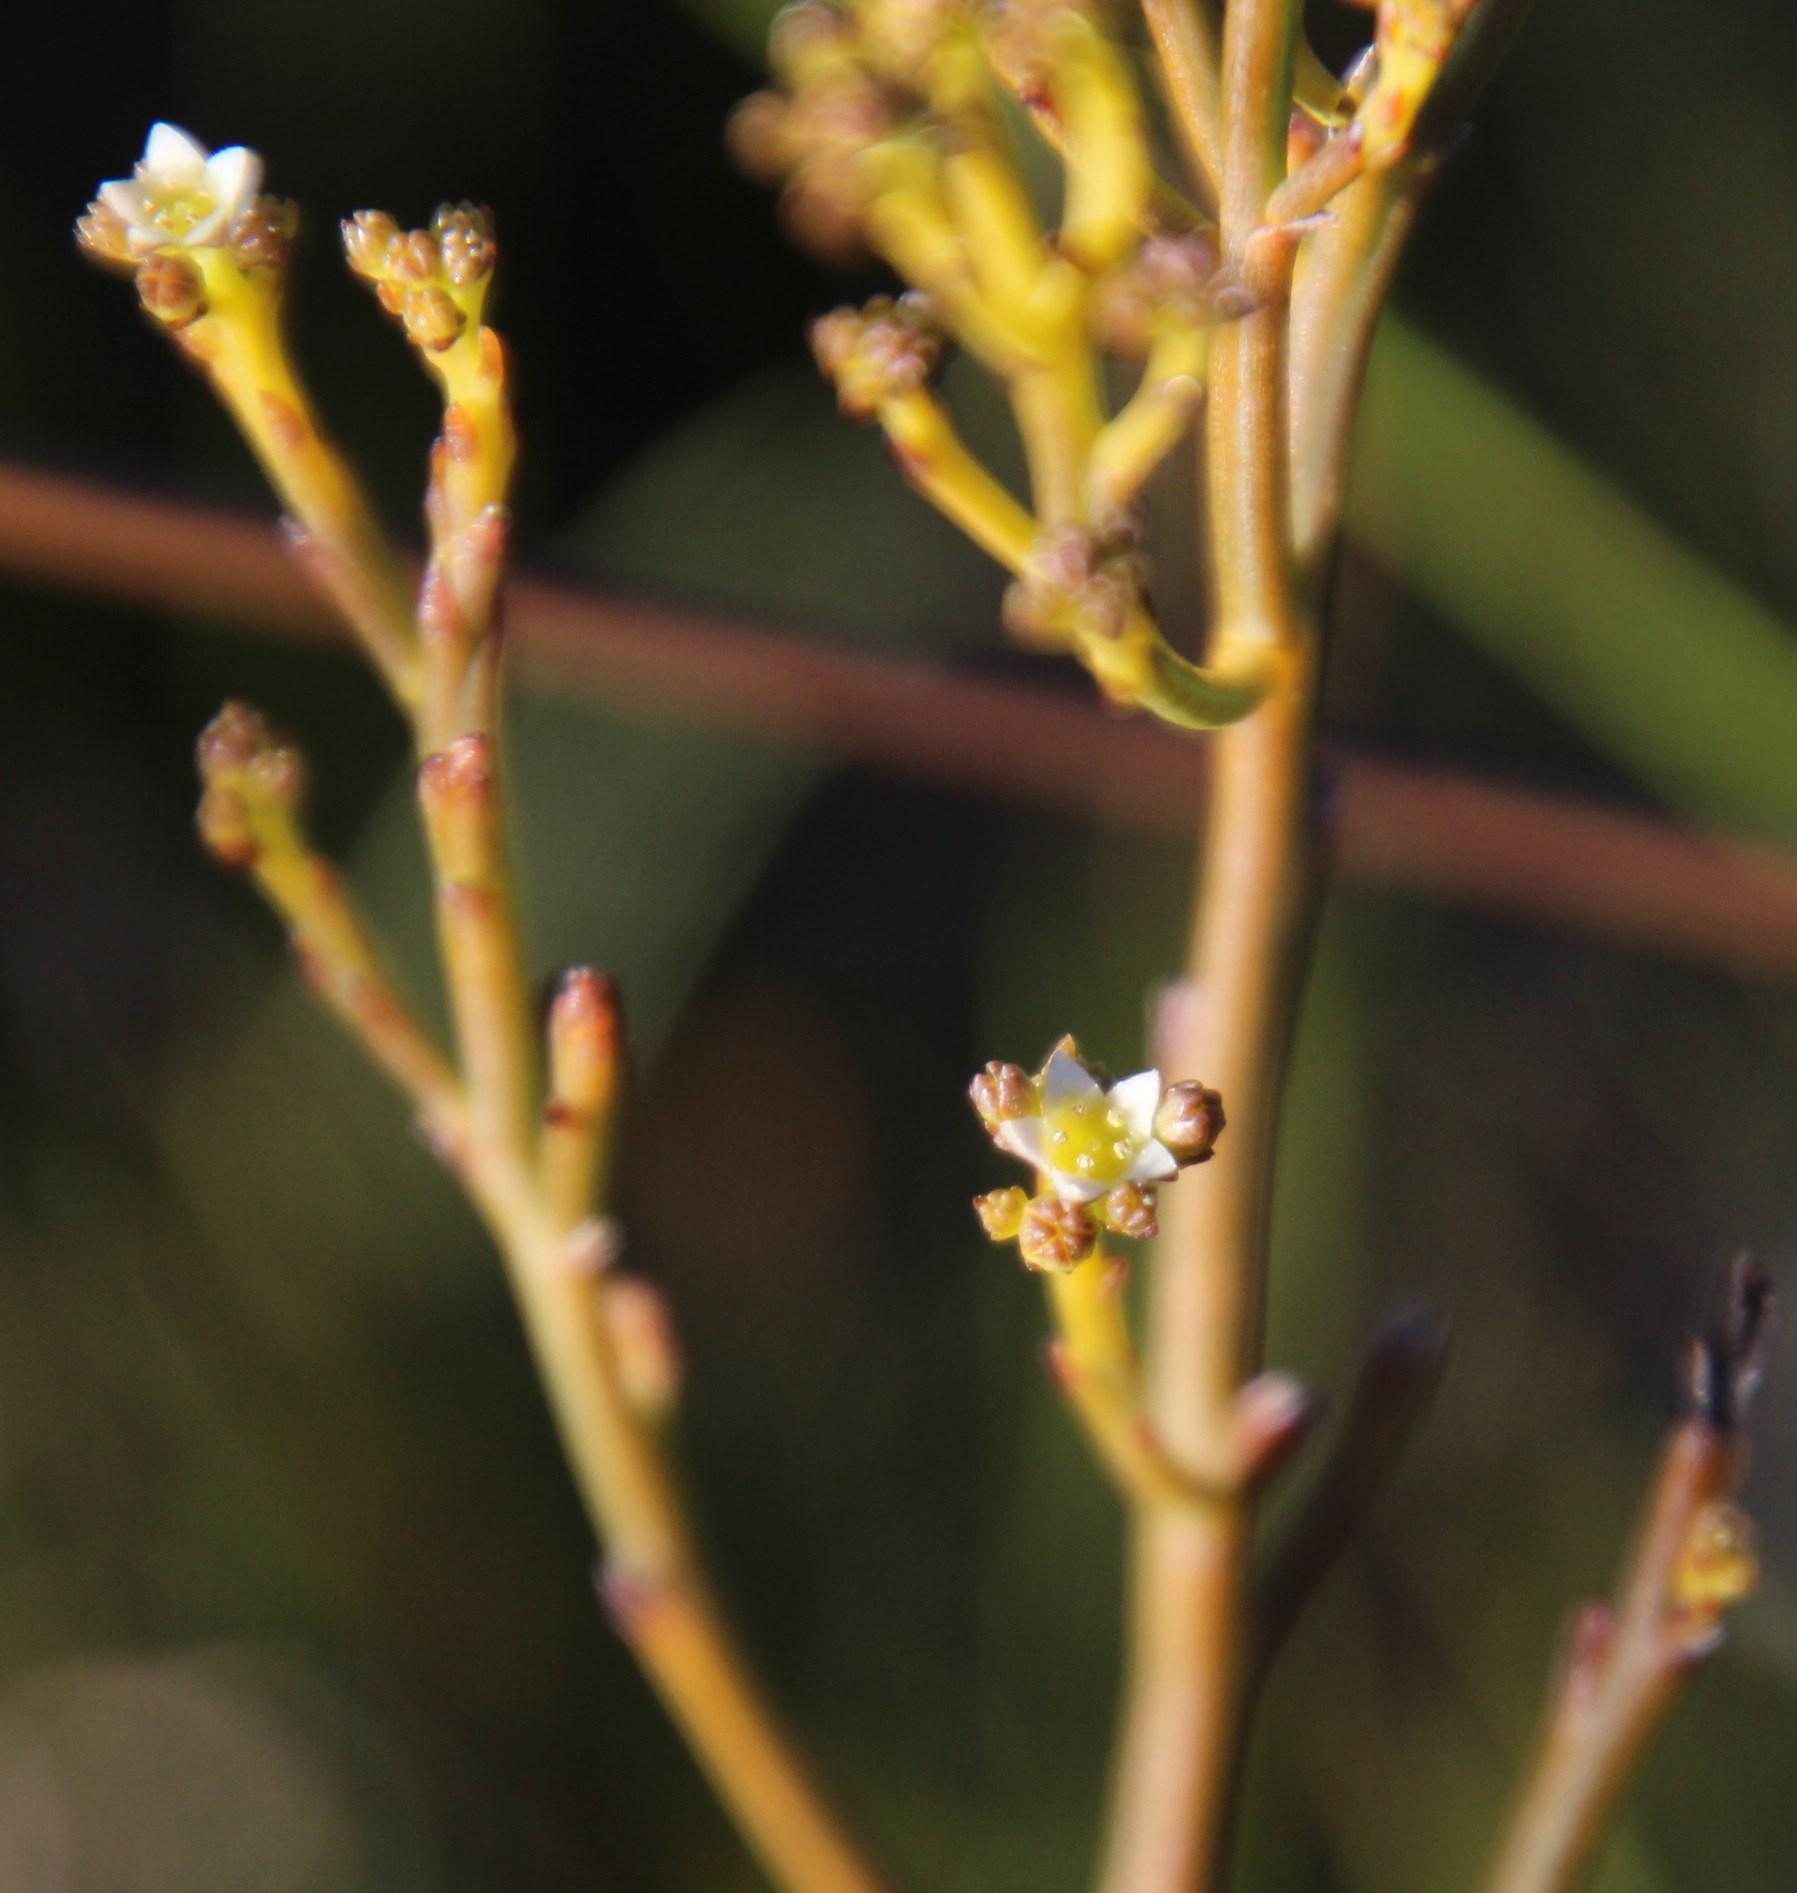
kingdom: Plantae
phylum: Tracheophyta
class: Magnoliopsida
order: Santalales
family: Thesiaceae
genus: Thesium
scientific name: Thesium commutatum
